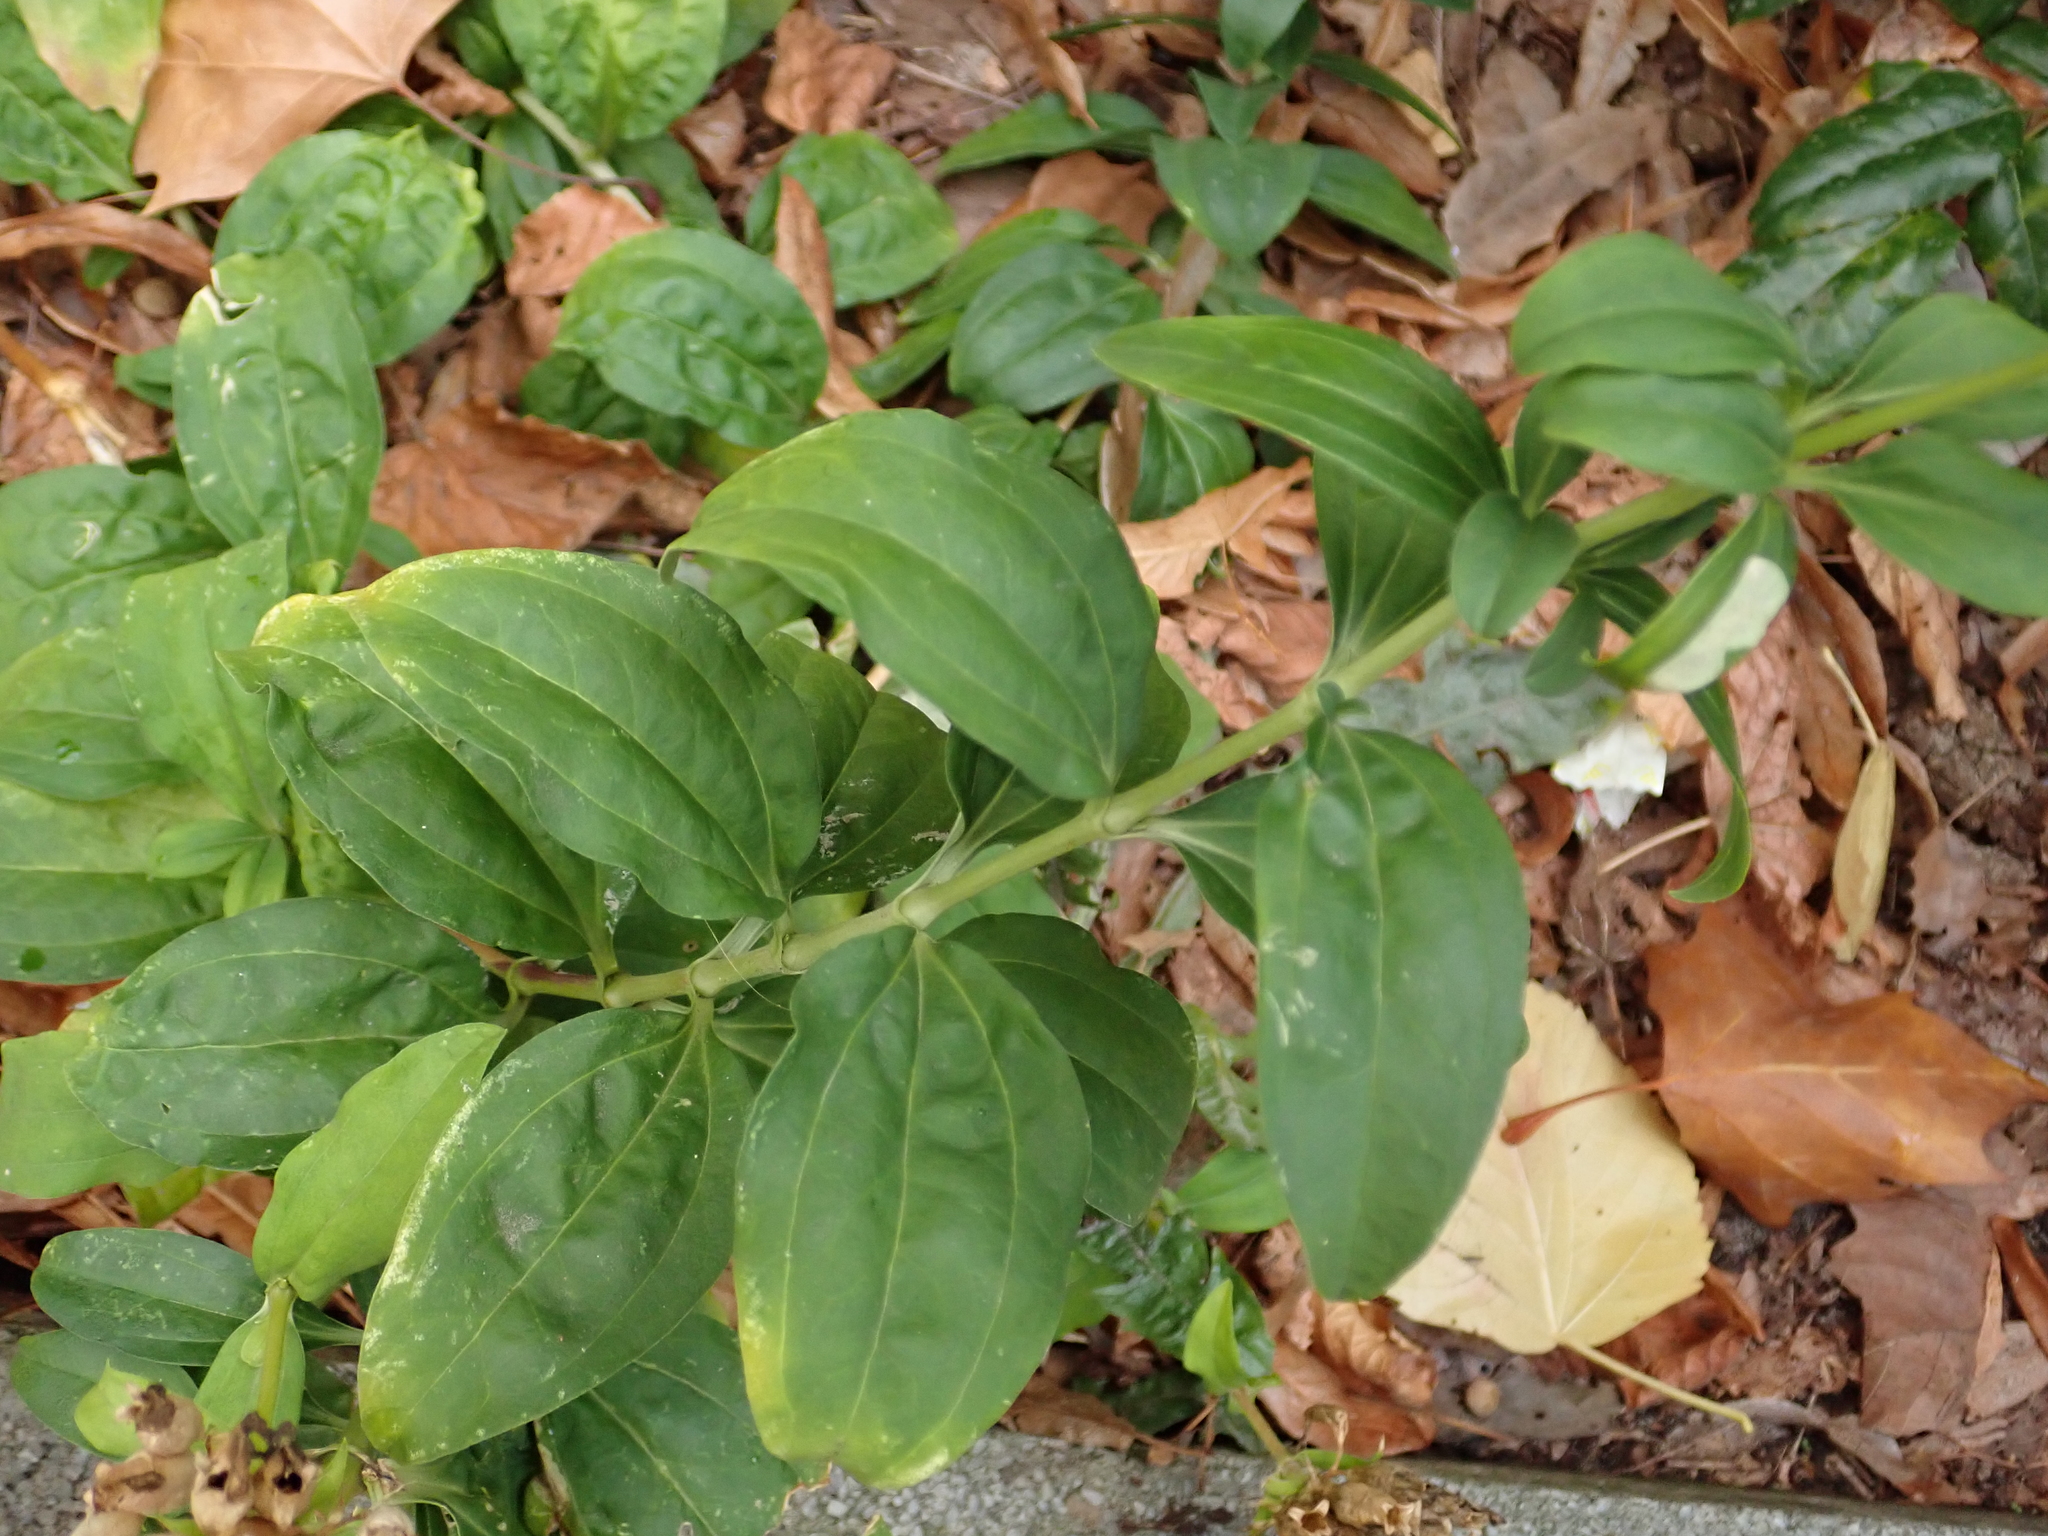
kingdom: Plantae
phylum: Tracheophyta
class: Magnoliopsida
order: Caryophyllales
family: Caryophyllaceae
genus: Saponaria
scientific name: Saponaria officinalis
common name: Soapwort
